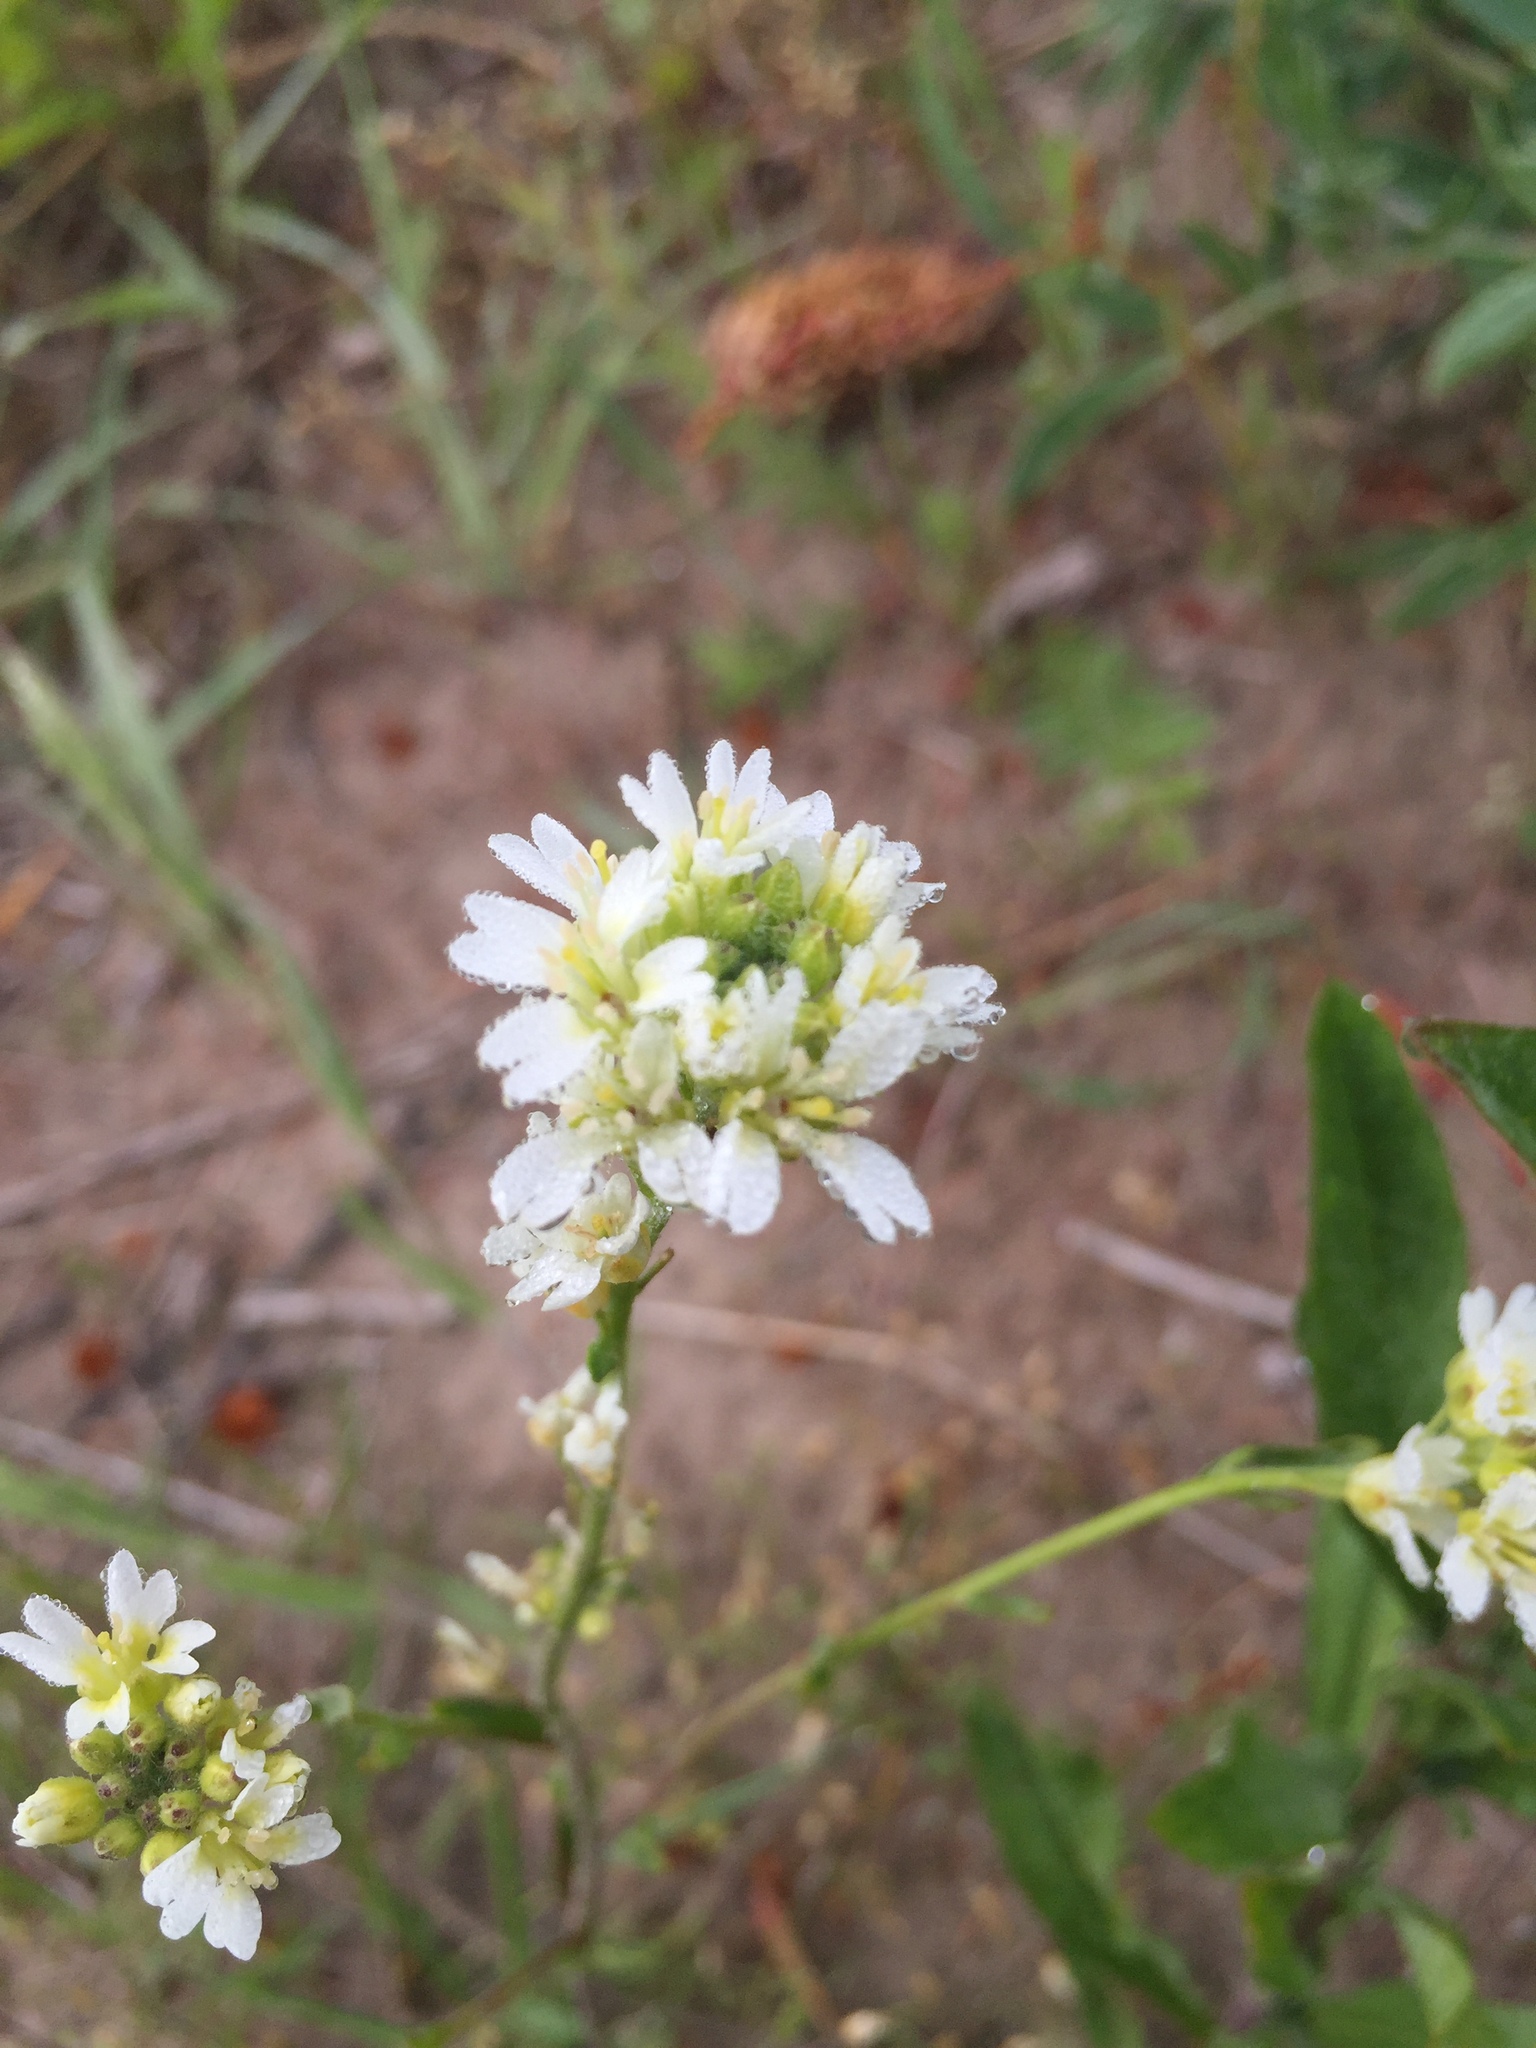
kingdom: Plantae
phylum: Tracheophyta
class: Magnoliopsida
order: Brassicales
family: Brassicaceae
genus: Berteroa
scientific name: Berteroa incana
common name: Hoary alison
